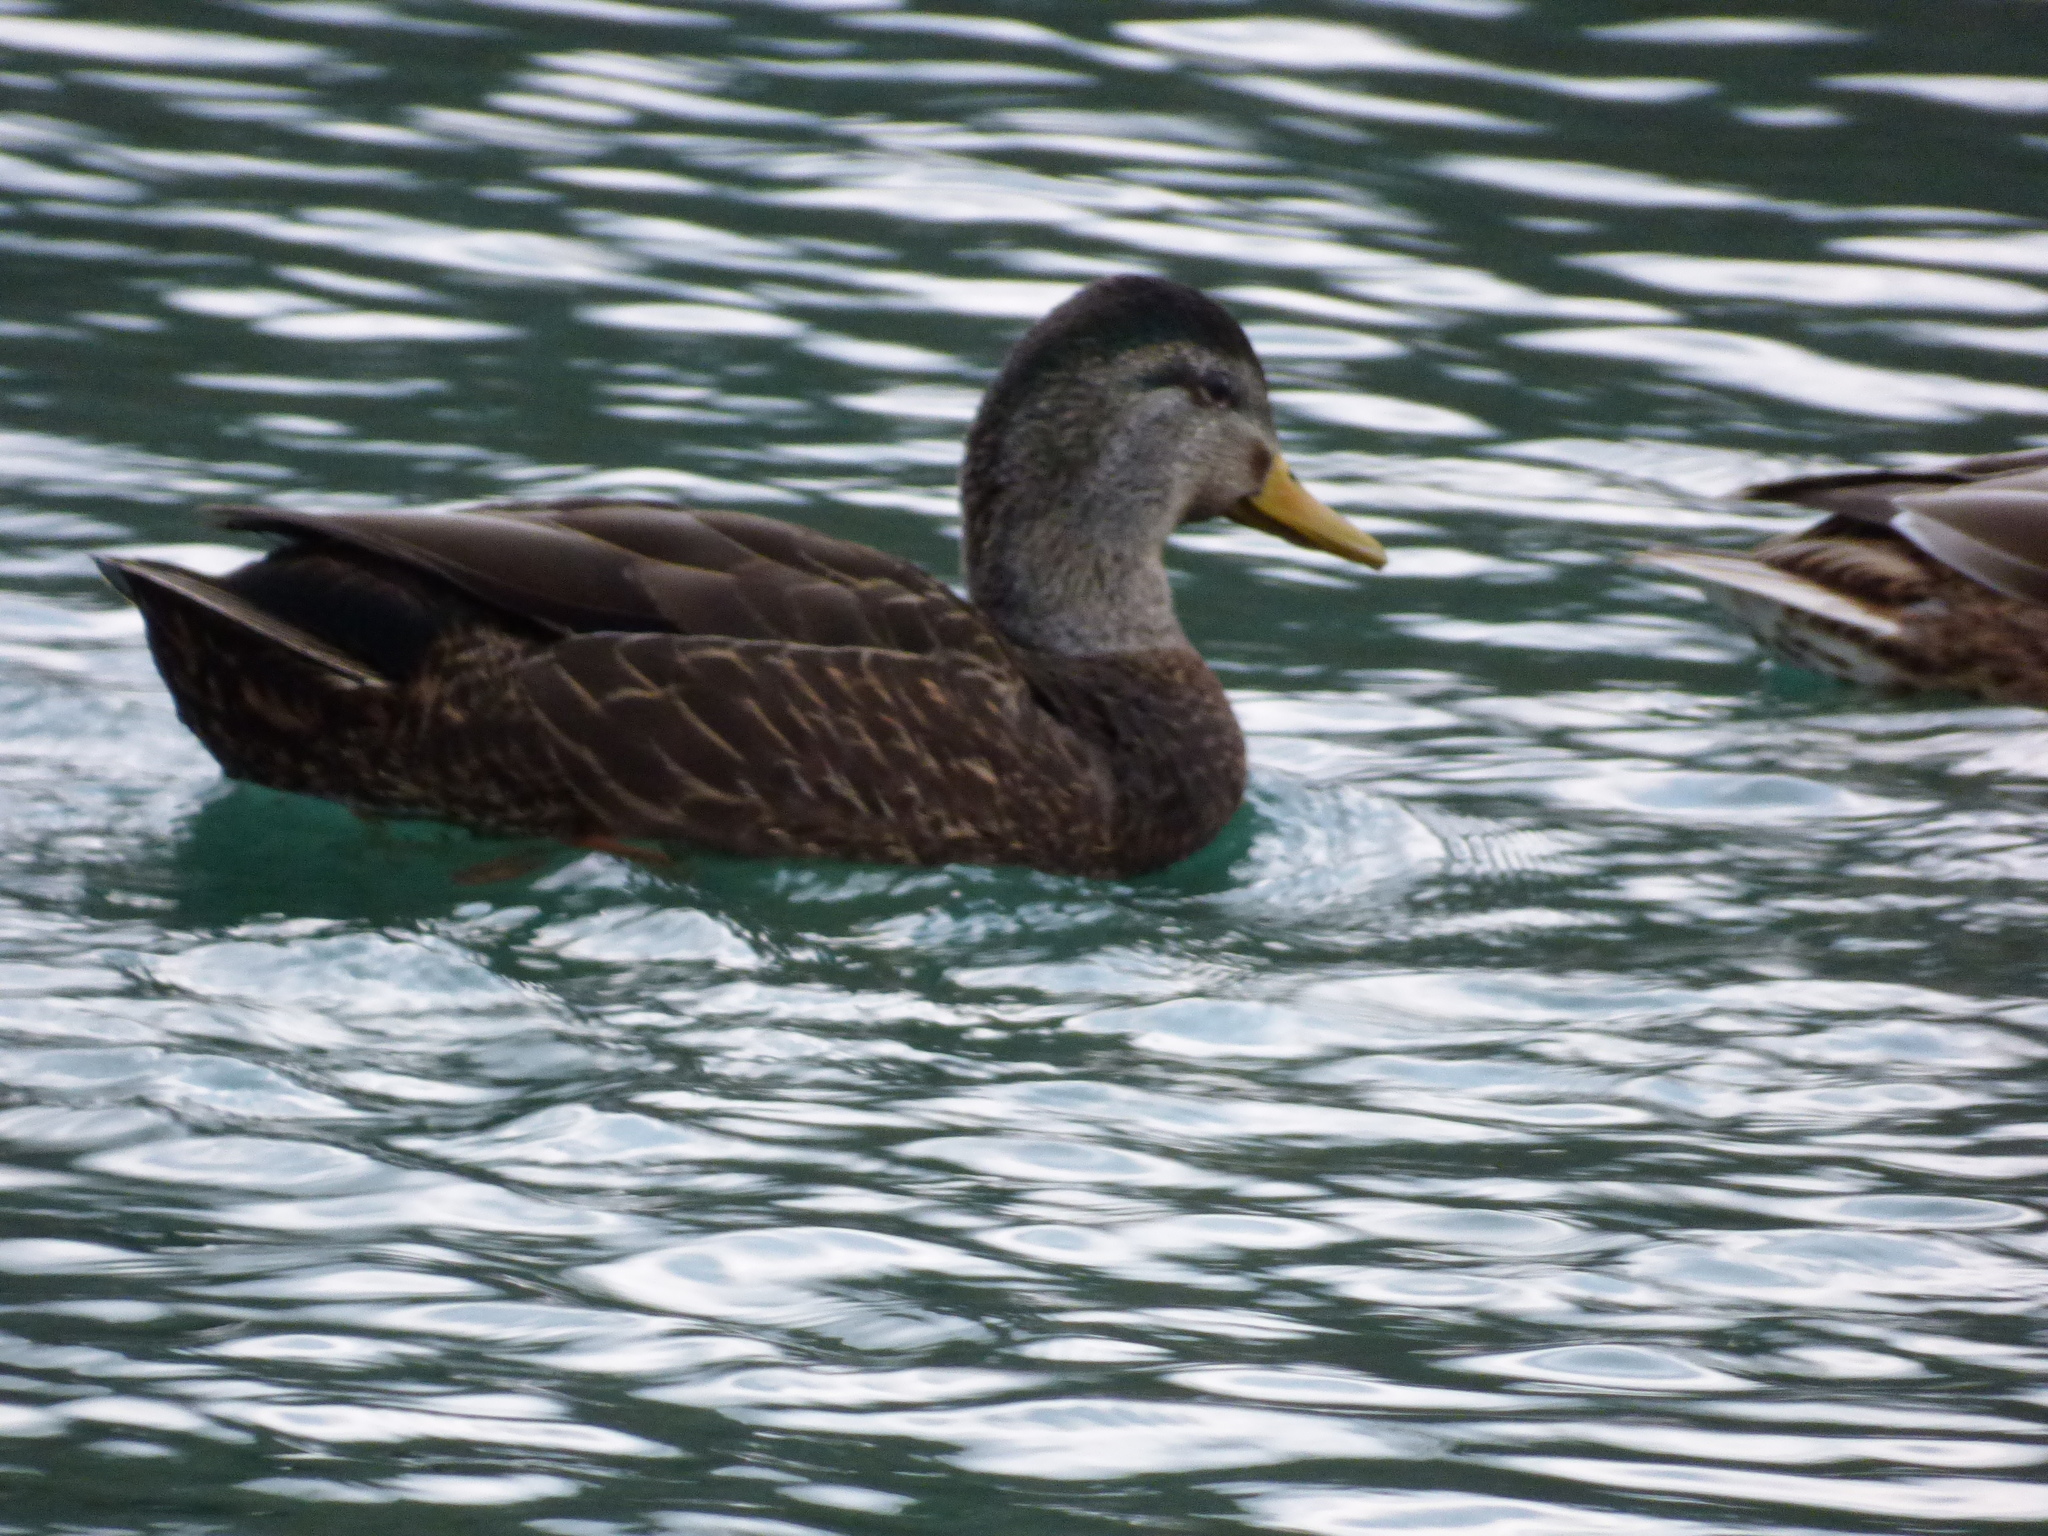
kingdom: Animalia
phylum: Chordata
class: Aves
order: Anseriformes
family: Anatidae
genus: Anas
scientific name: Anas rubripes
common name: American black duck
